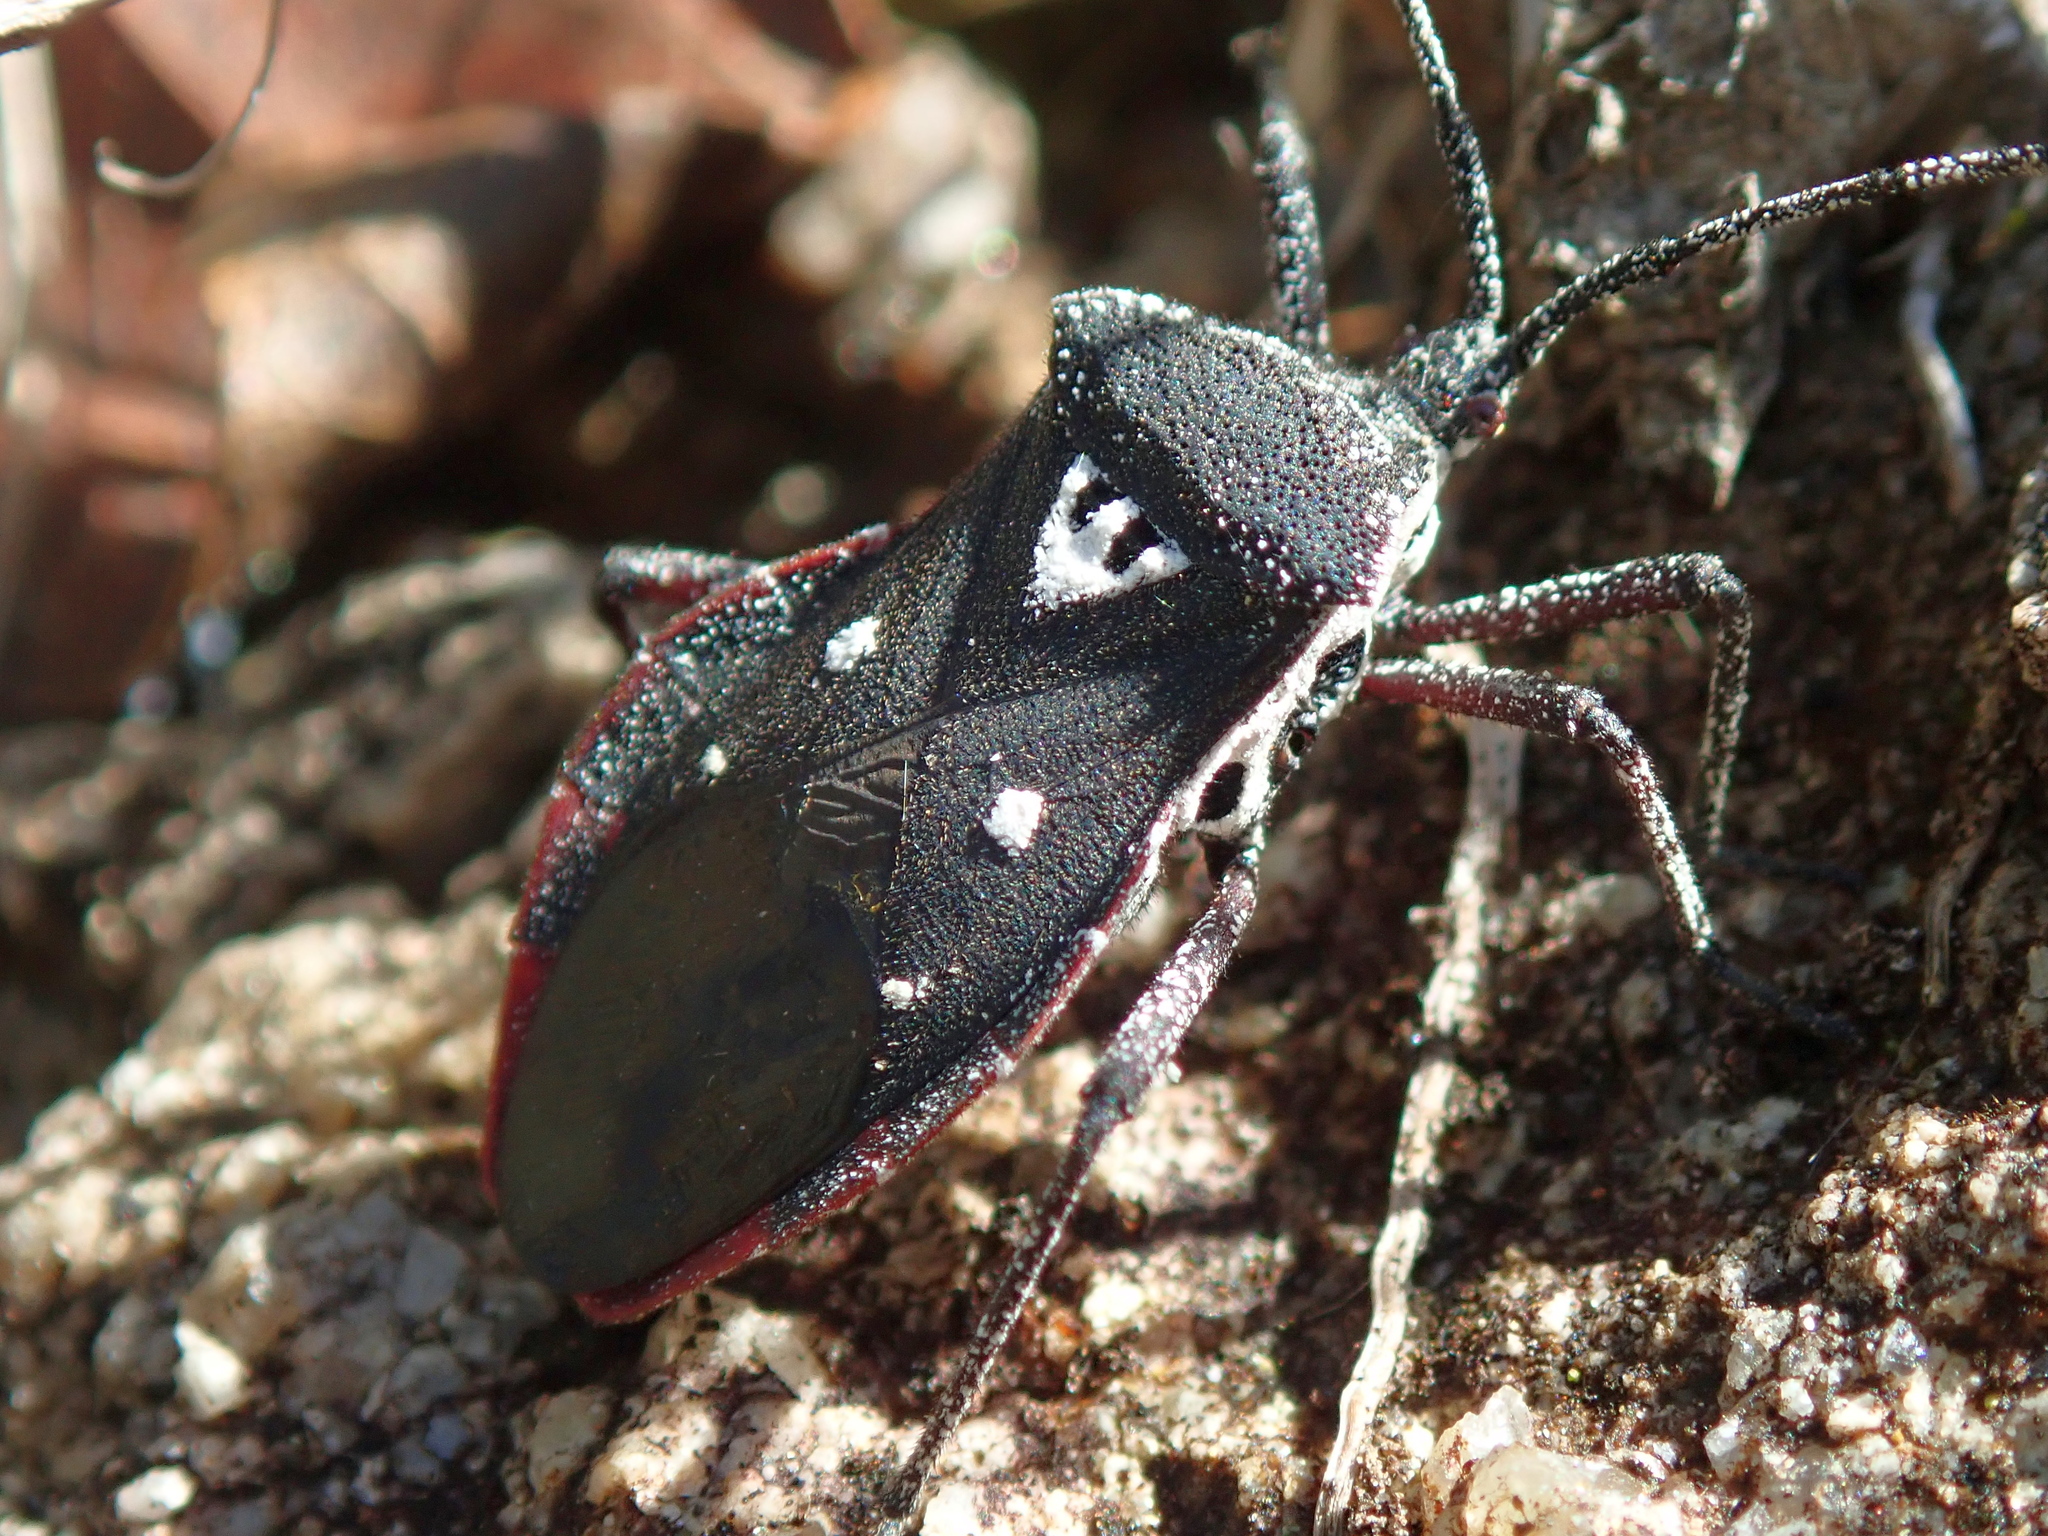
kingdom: Animalia
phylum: Arthropoda
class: Insecta
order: Hemiptera
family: Coreidae
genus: Eubule
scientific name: Eubule farinosa
